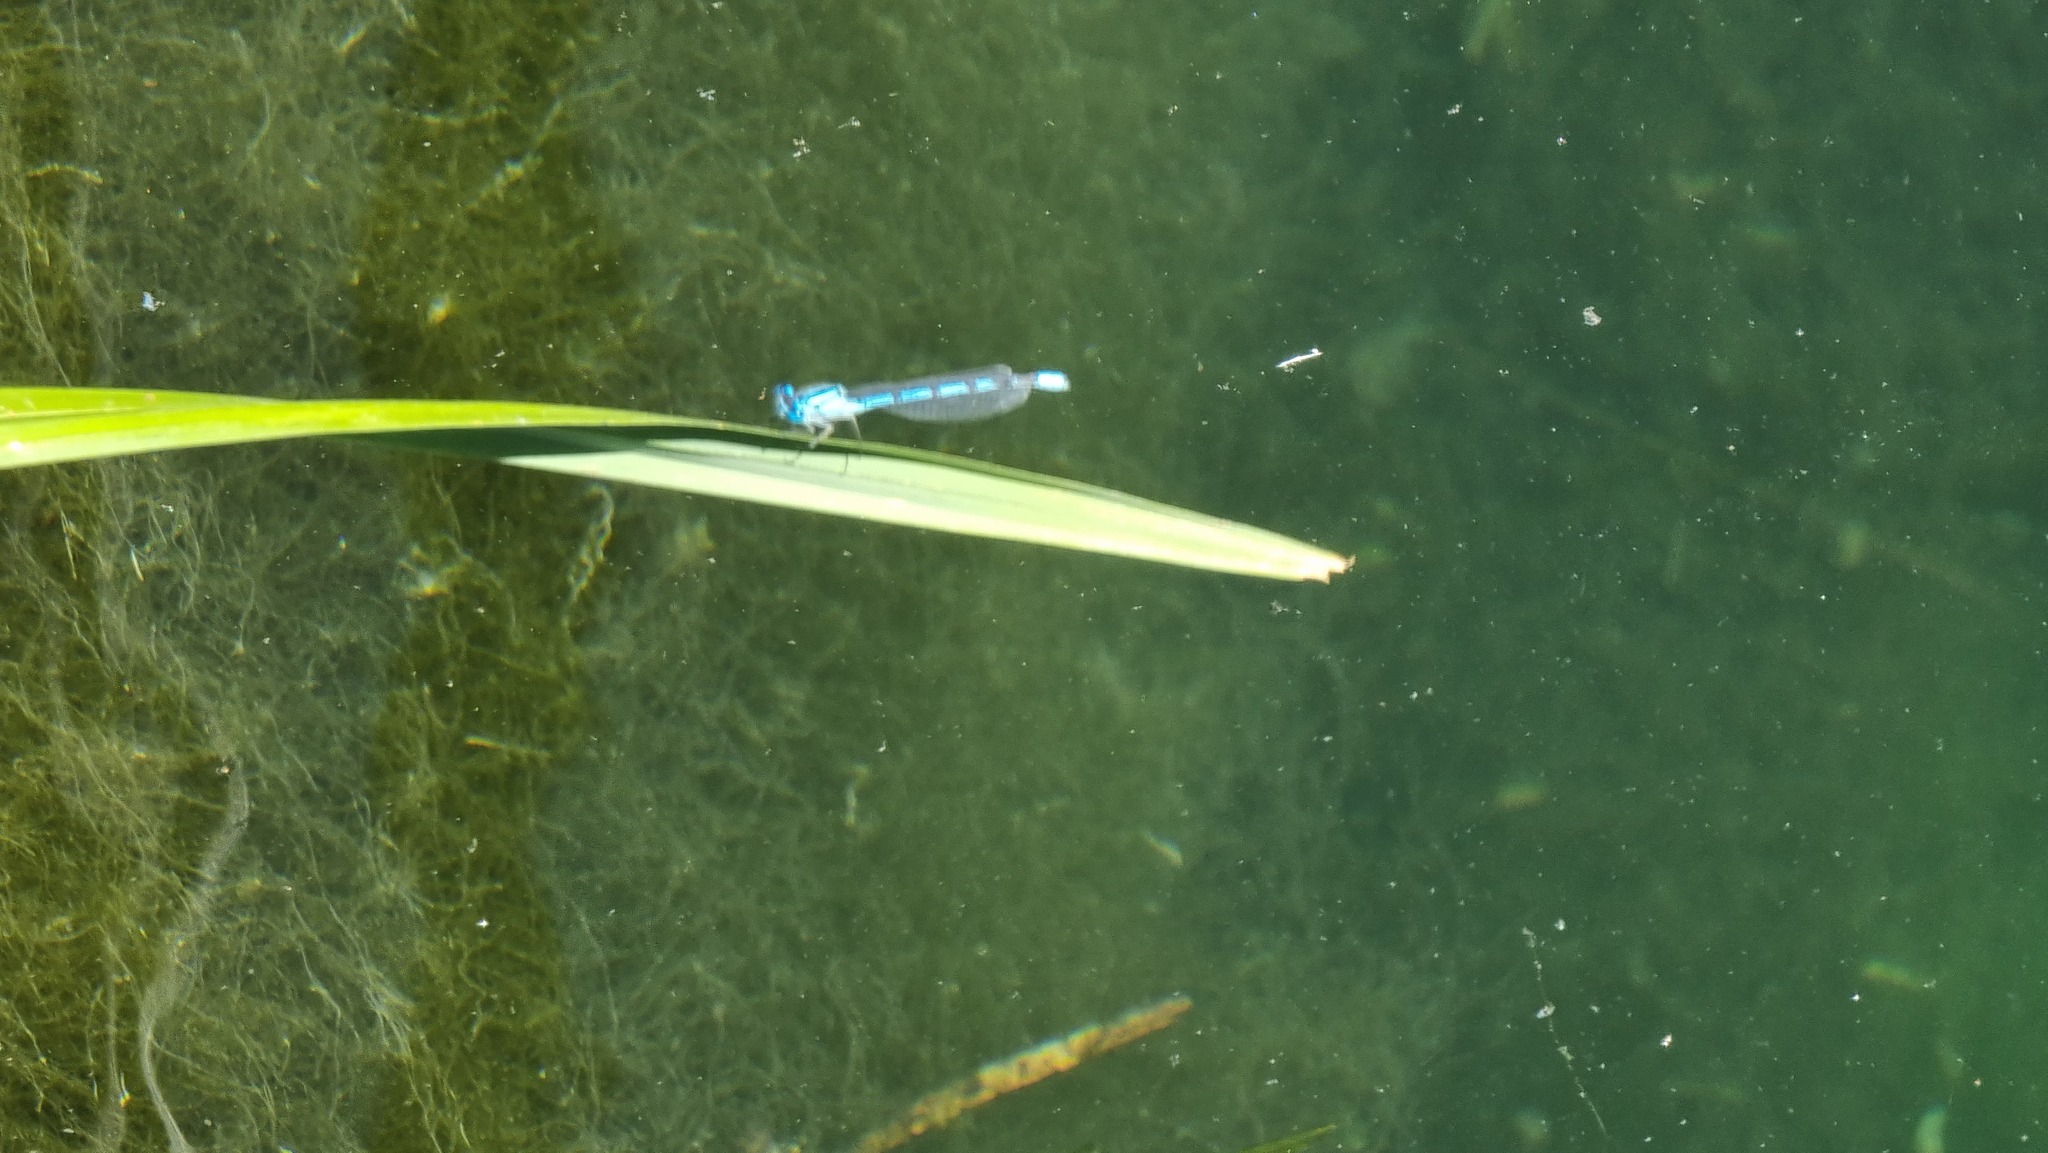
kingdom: Animalia
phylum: Arthropoda
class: Insecta
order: Odonata
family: Coenagrionidae
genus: Enallagma
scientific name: Enallagma cyathigerum
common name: Common blue damselfly
